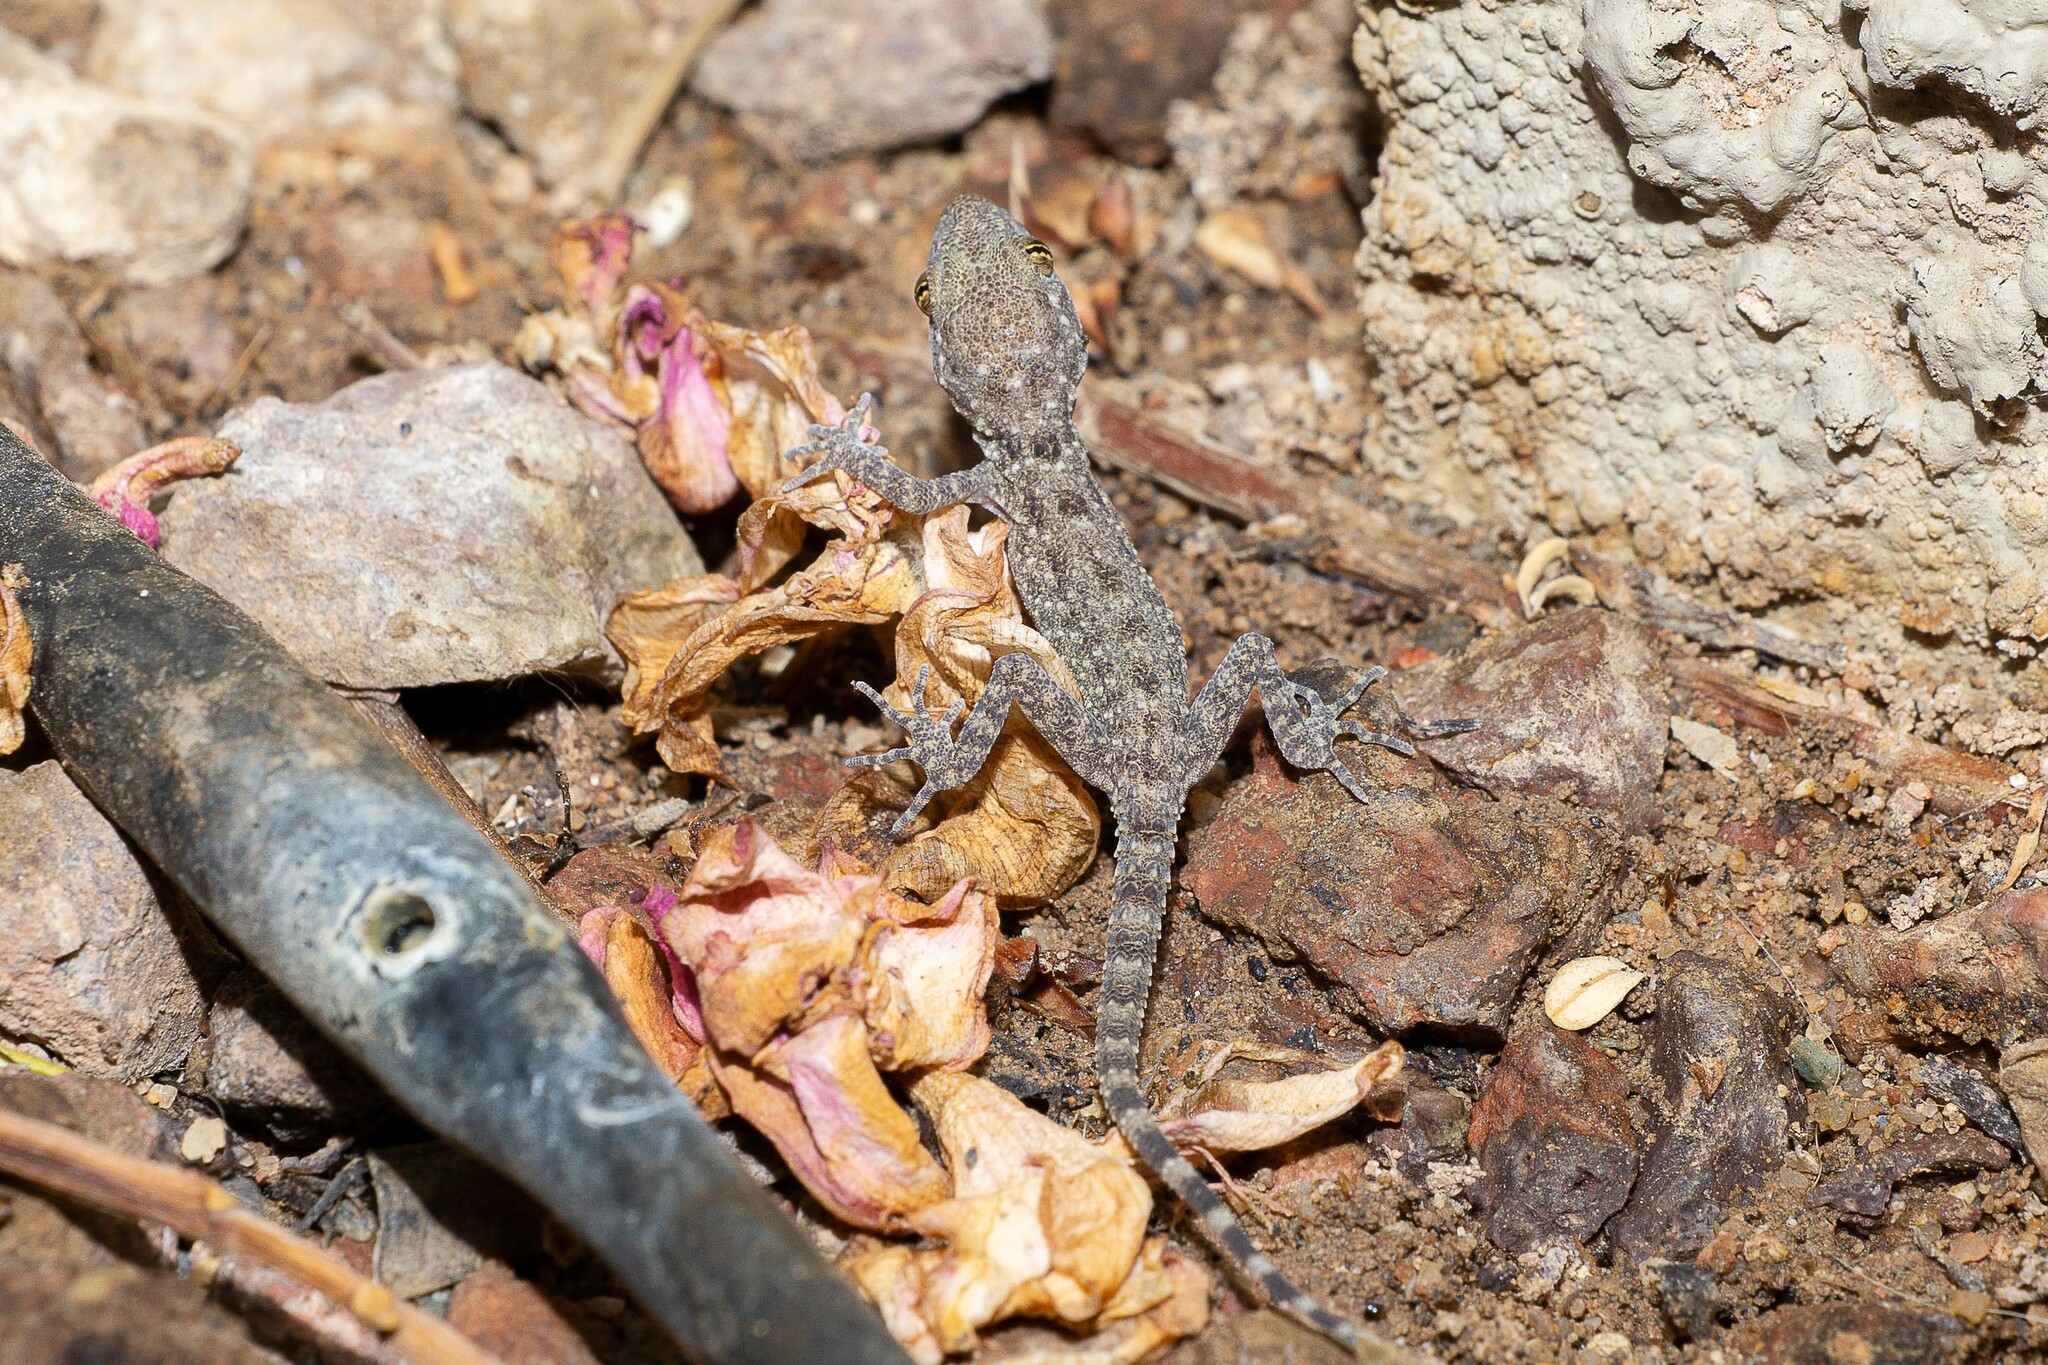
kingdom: Animalia
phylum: Chordata
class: Squamata
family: Gekkonidae
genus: Cyrtopodion
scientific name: Cyrtopodion scabrum
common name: Rough-tailed gecko
